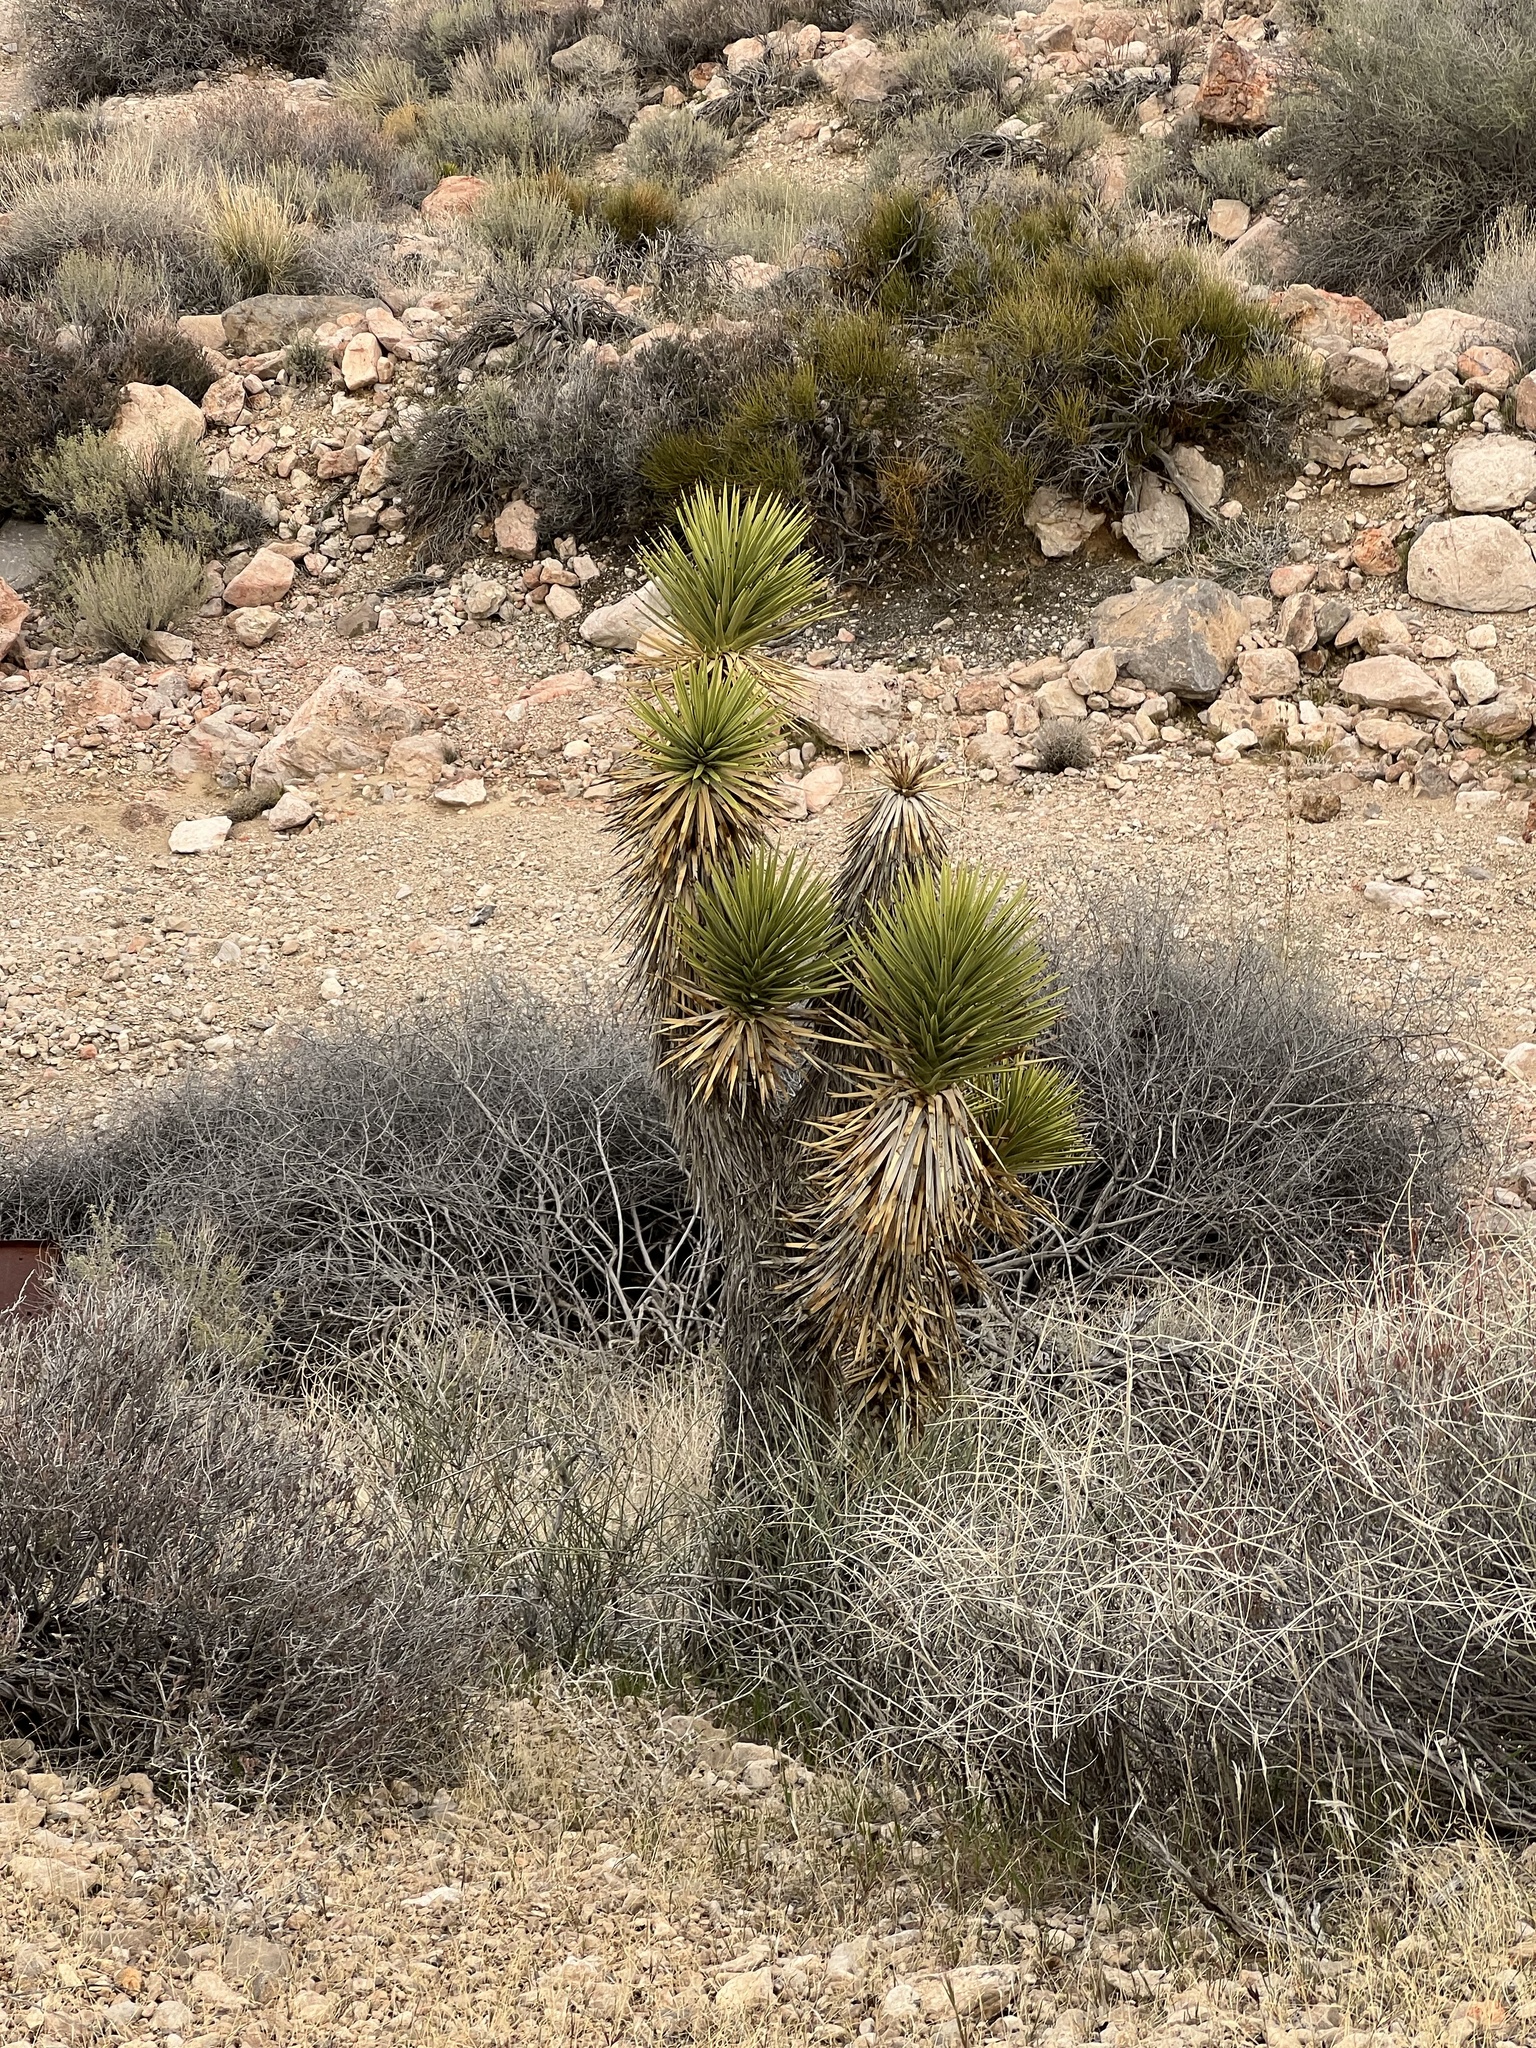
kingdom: Plantae
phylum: Tracheophyta
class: Liliopsida
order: Asparagales
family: Asparagaceae
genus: Yucca
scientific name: Yucca brevifolia
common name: Joshua tree
